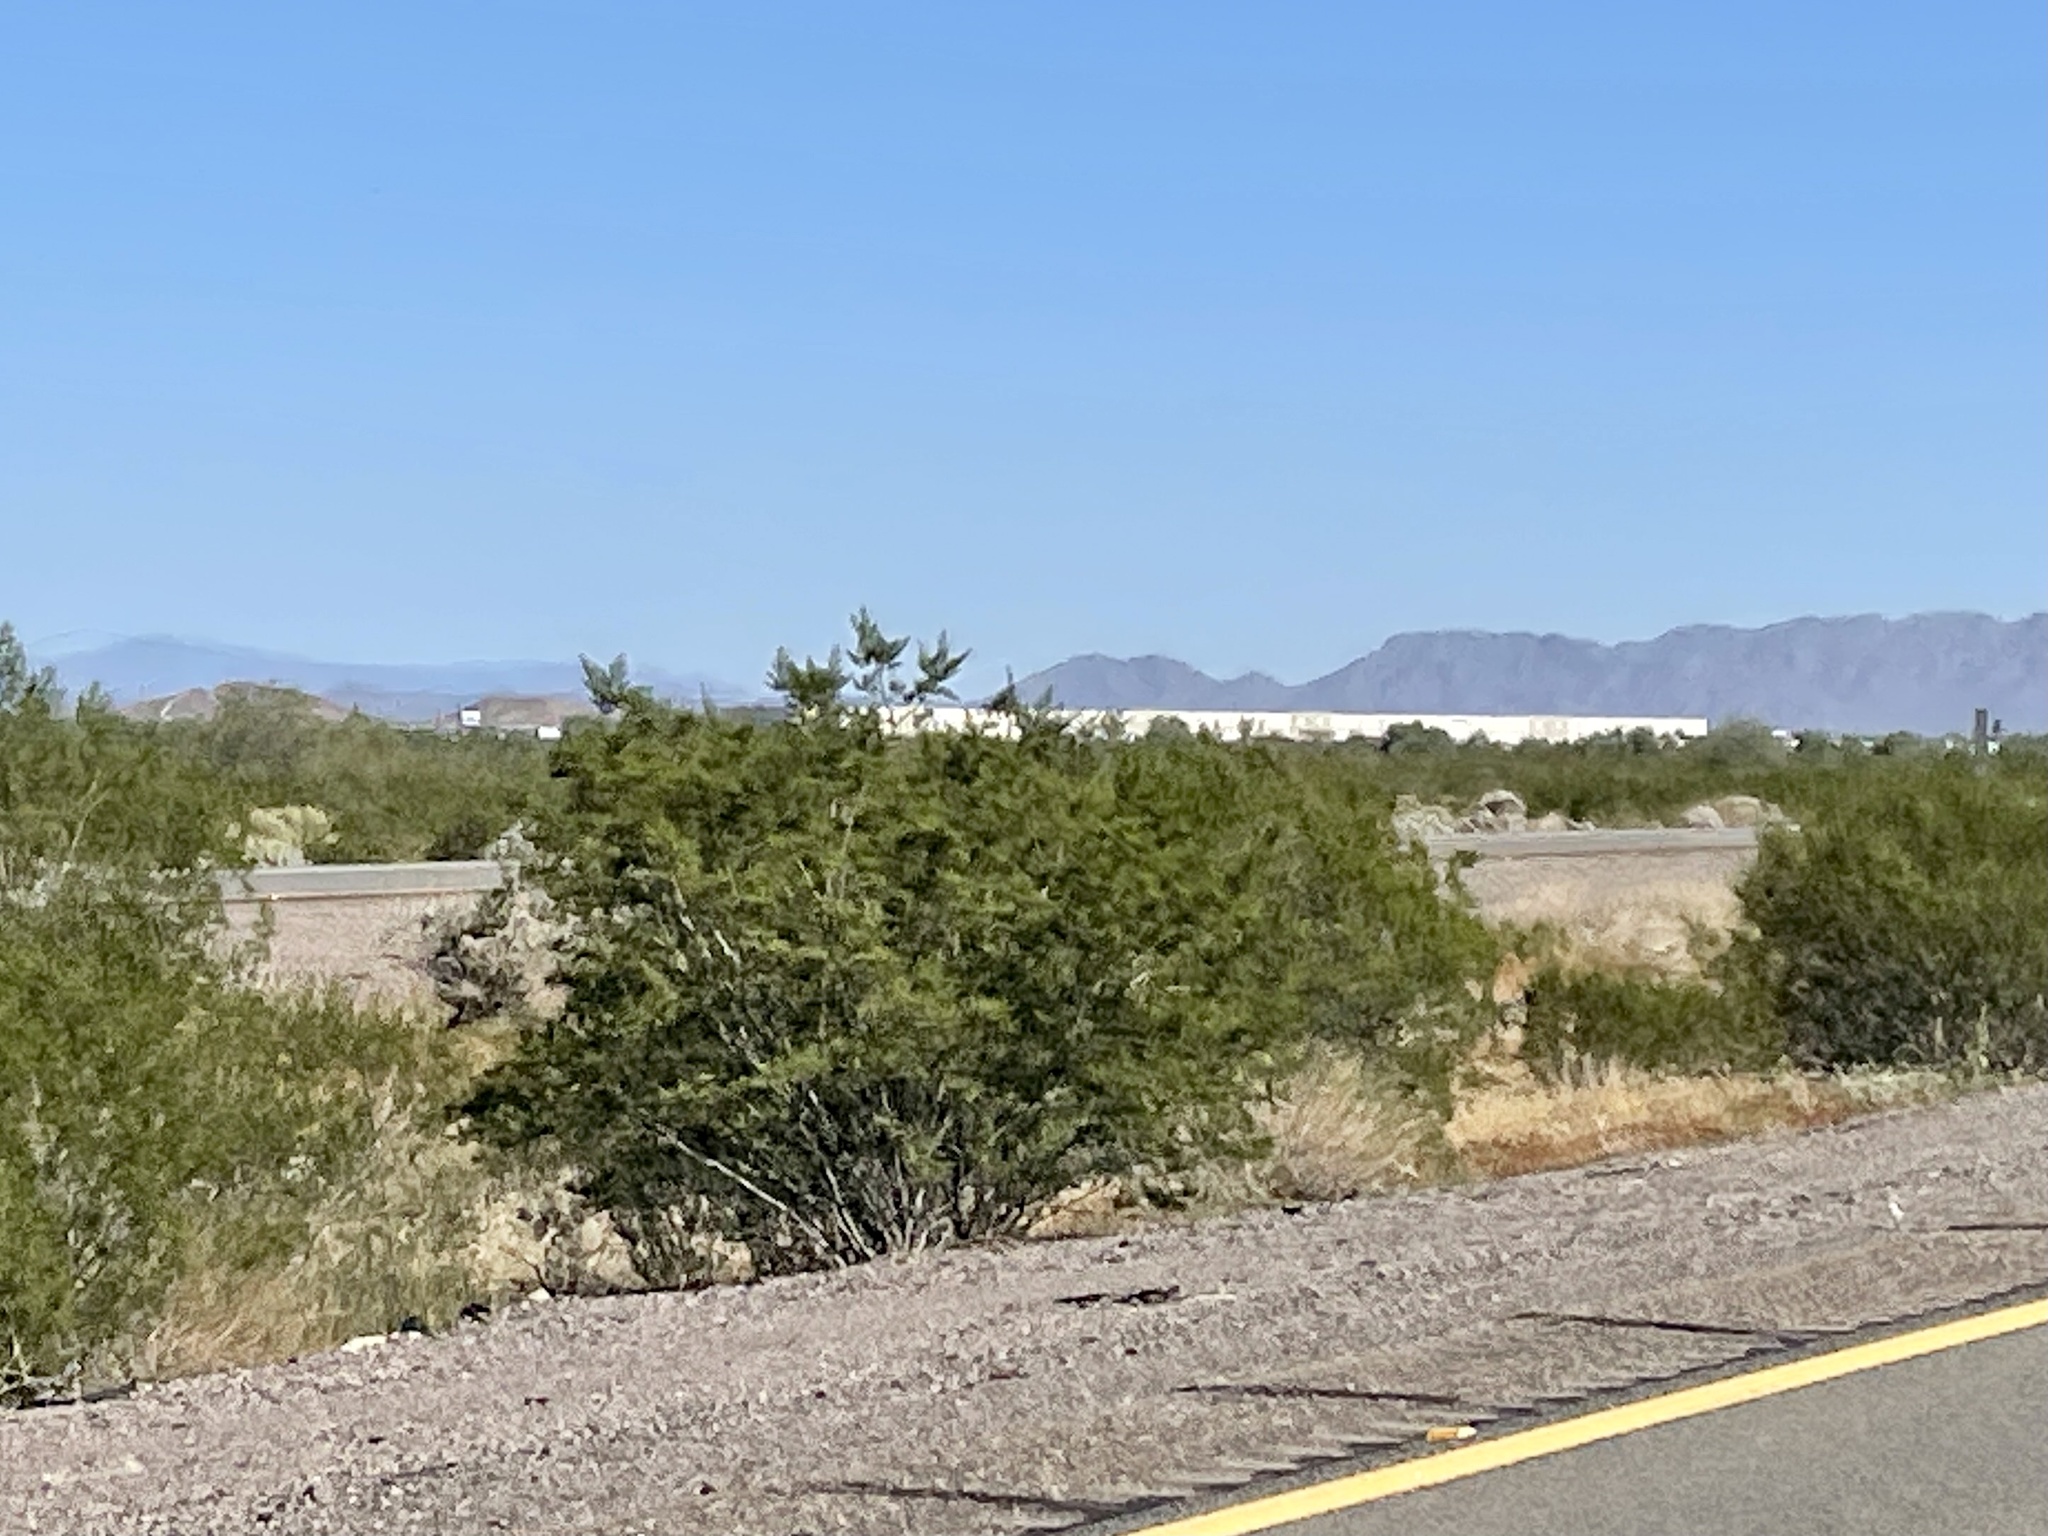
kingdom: Plantae
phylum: Tracheophyta
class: Magnoliopsida
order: Zygophyllales
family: Zygophyllaceae
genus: Larrea
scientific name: Larrea tridentata
